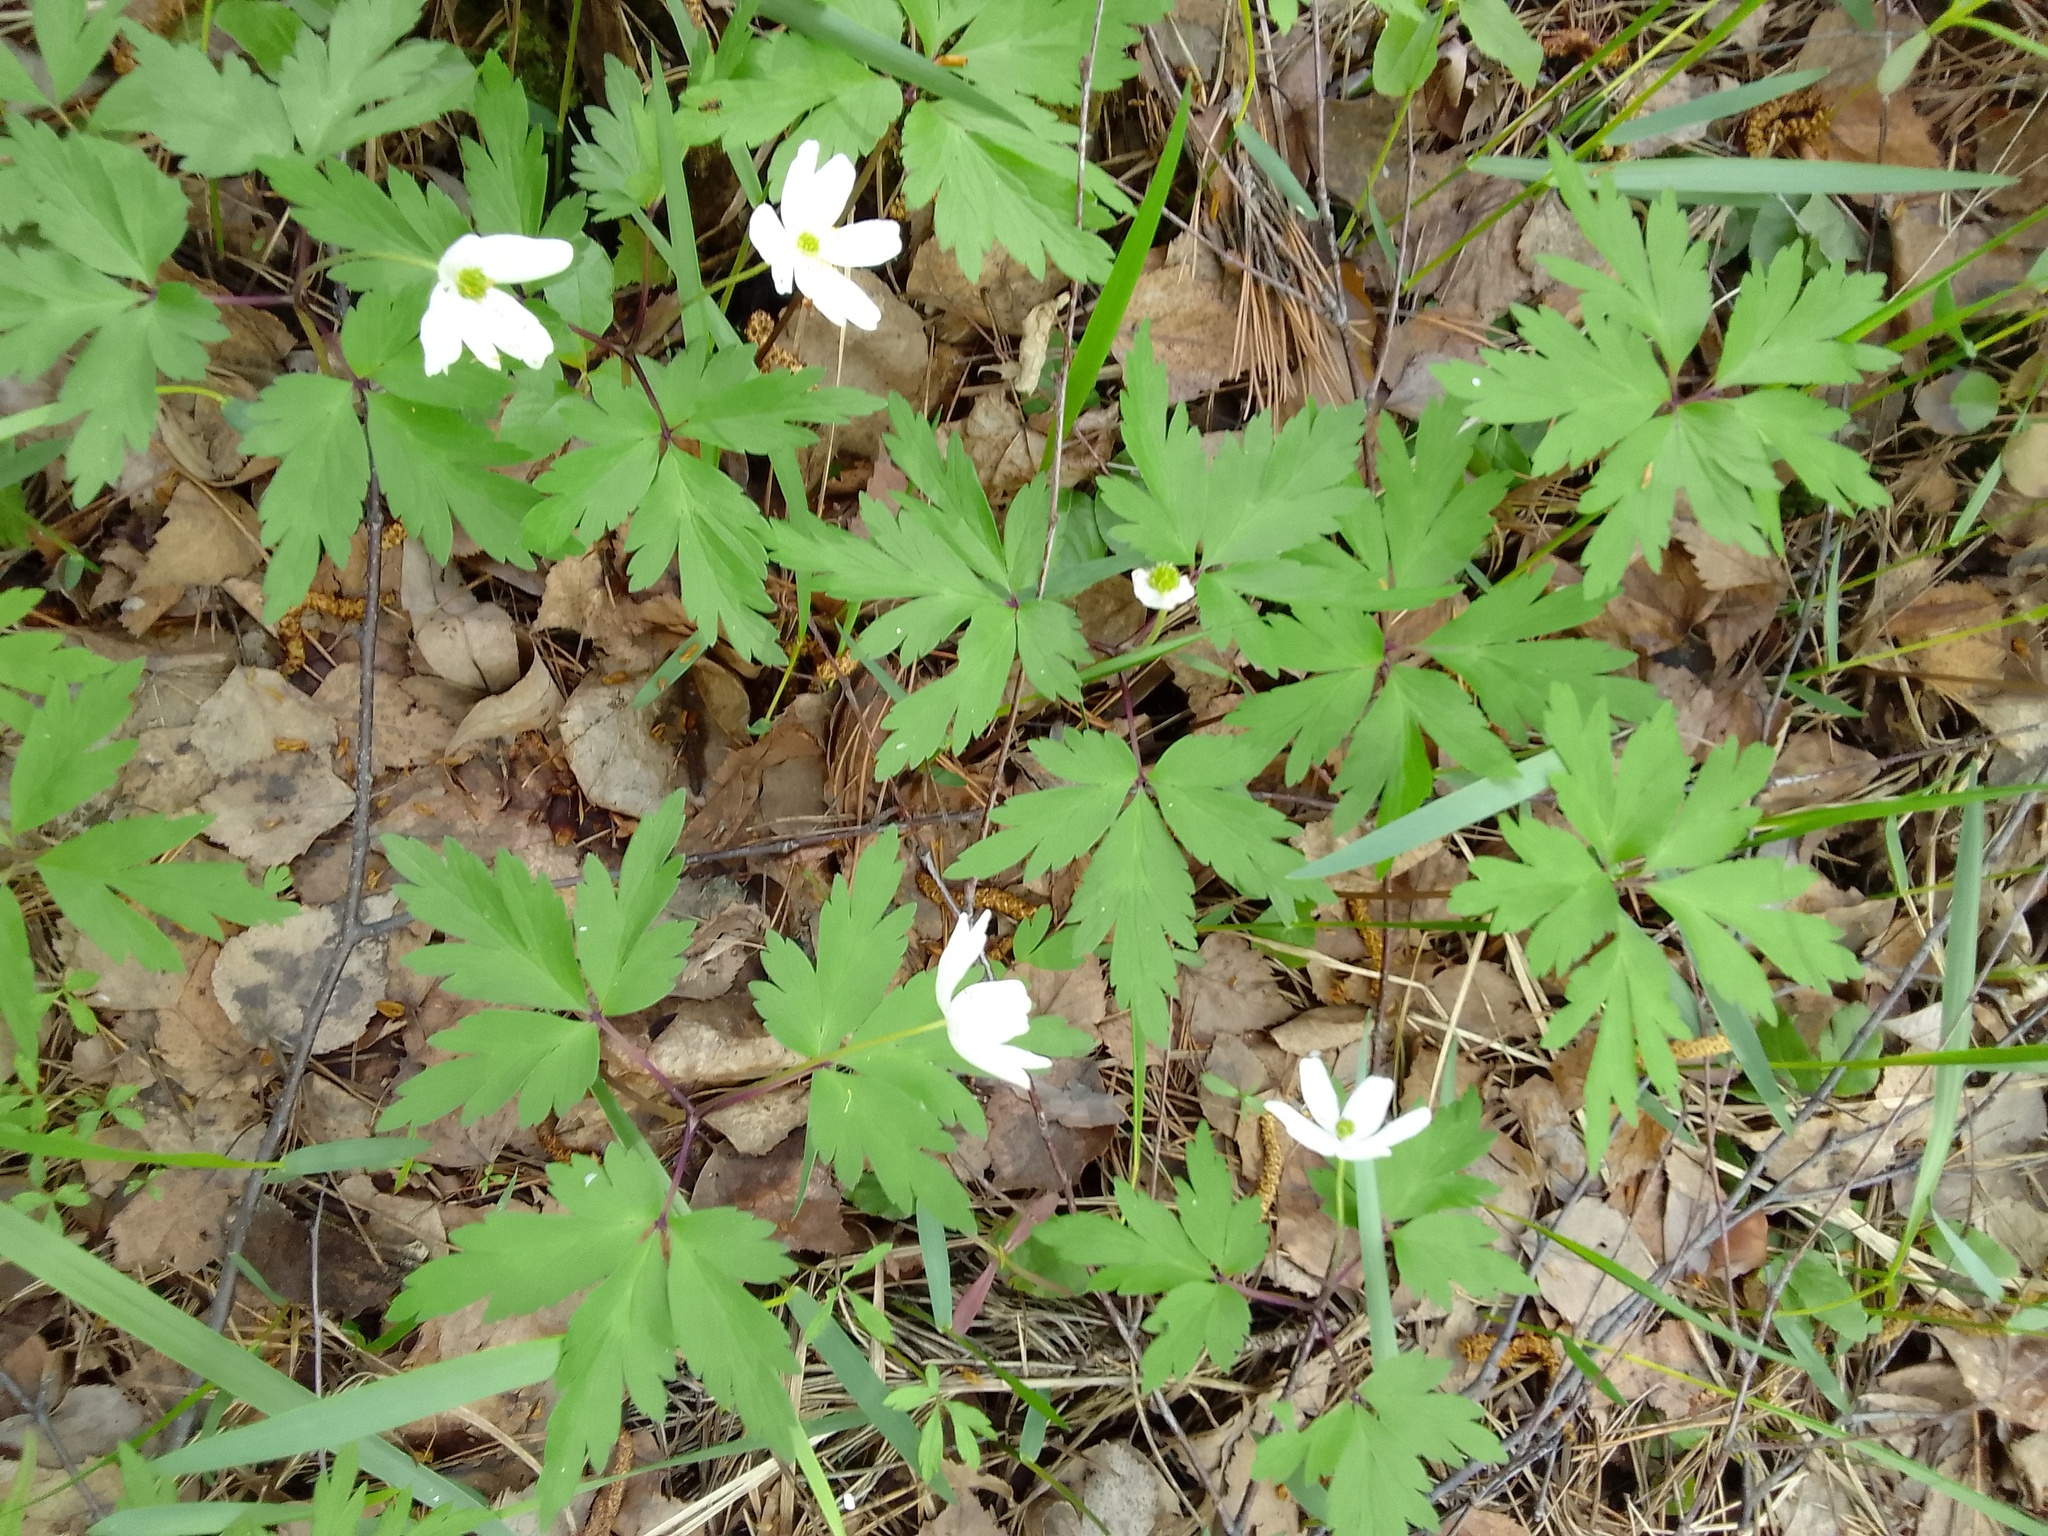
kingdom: Plantae
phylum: Tracheophyta
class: Magnoliopsida
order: Ranunculales
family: Ranunculaceae
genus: Anemone
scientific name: Anemone nemorosa
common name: Wood anemone
